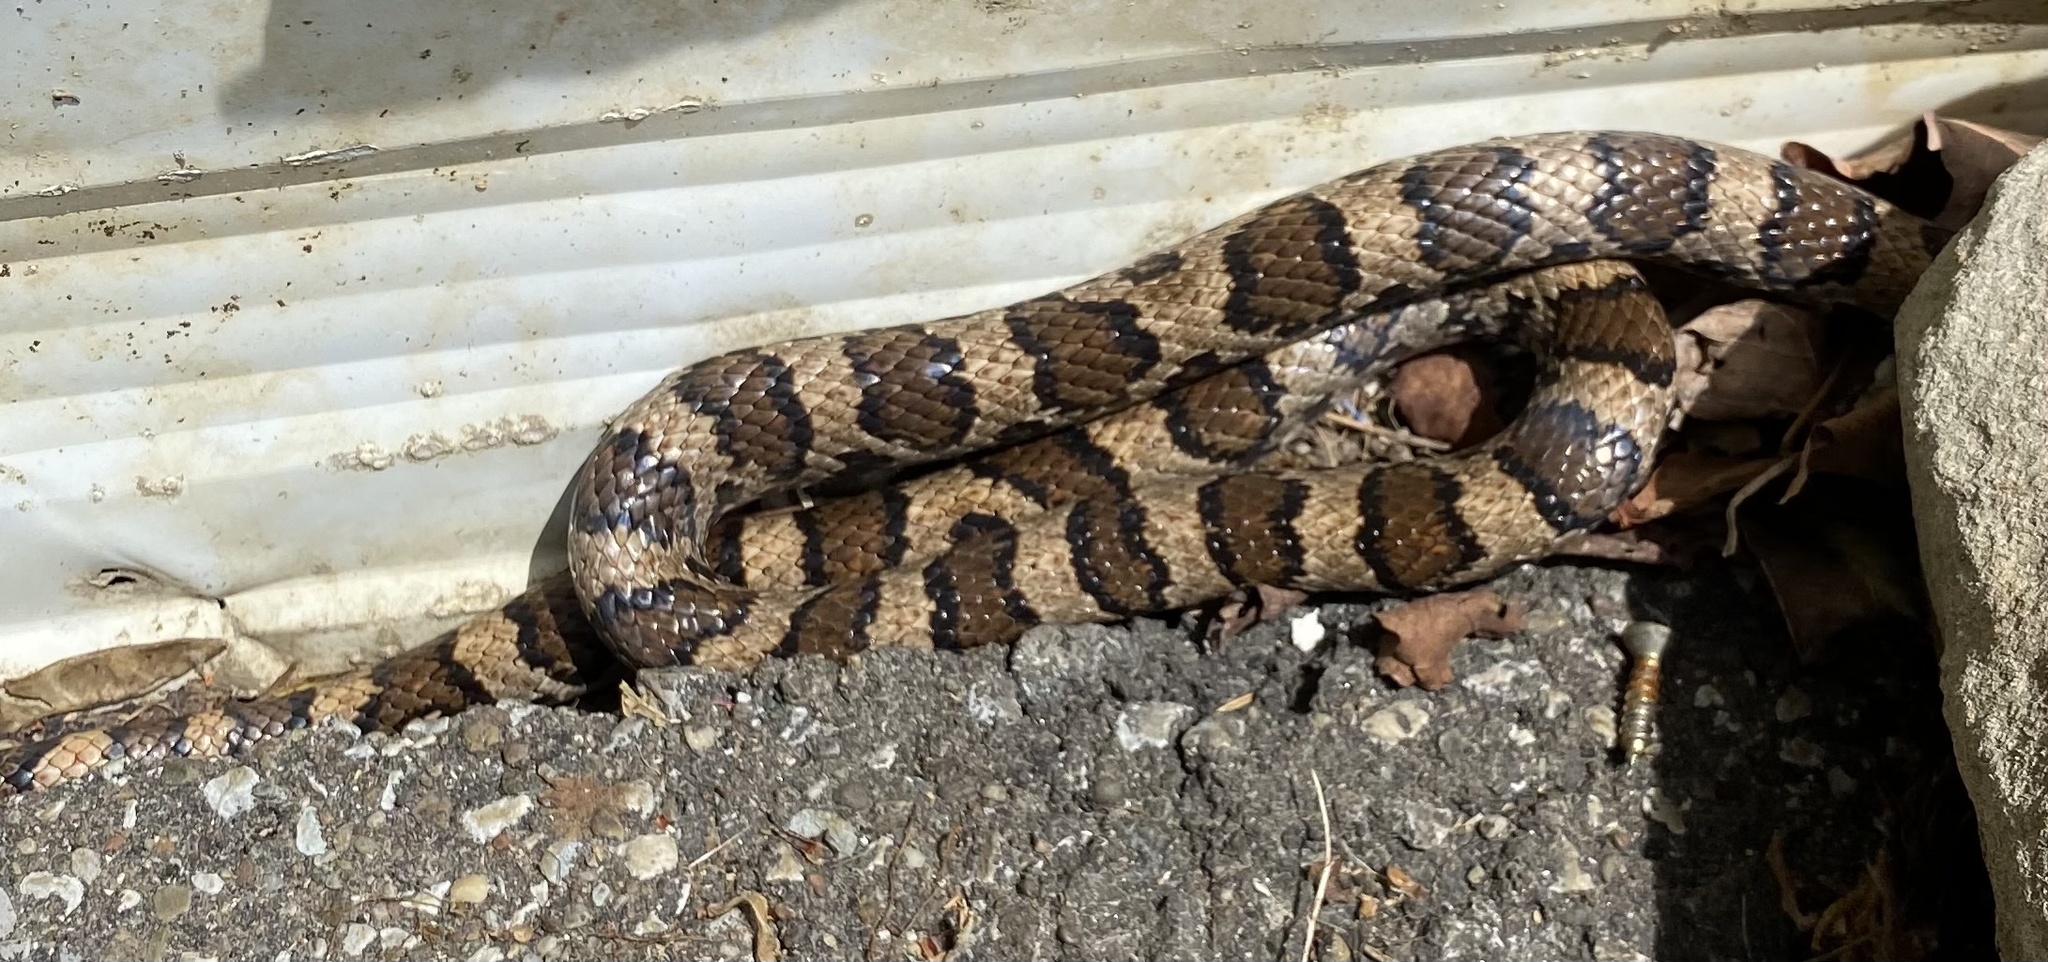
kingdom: Animalia
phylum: Chordata
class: Squamata
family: Colubridae
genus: Lampropeltis
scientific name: Lampropeltis triangulum
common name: Eastern milksnake
